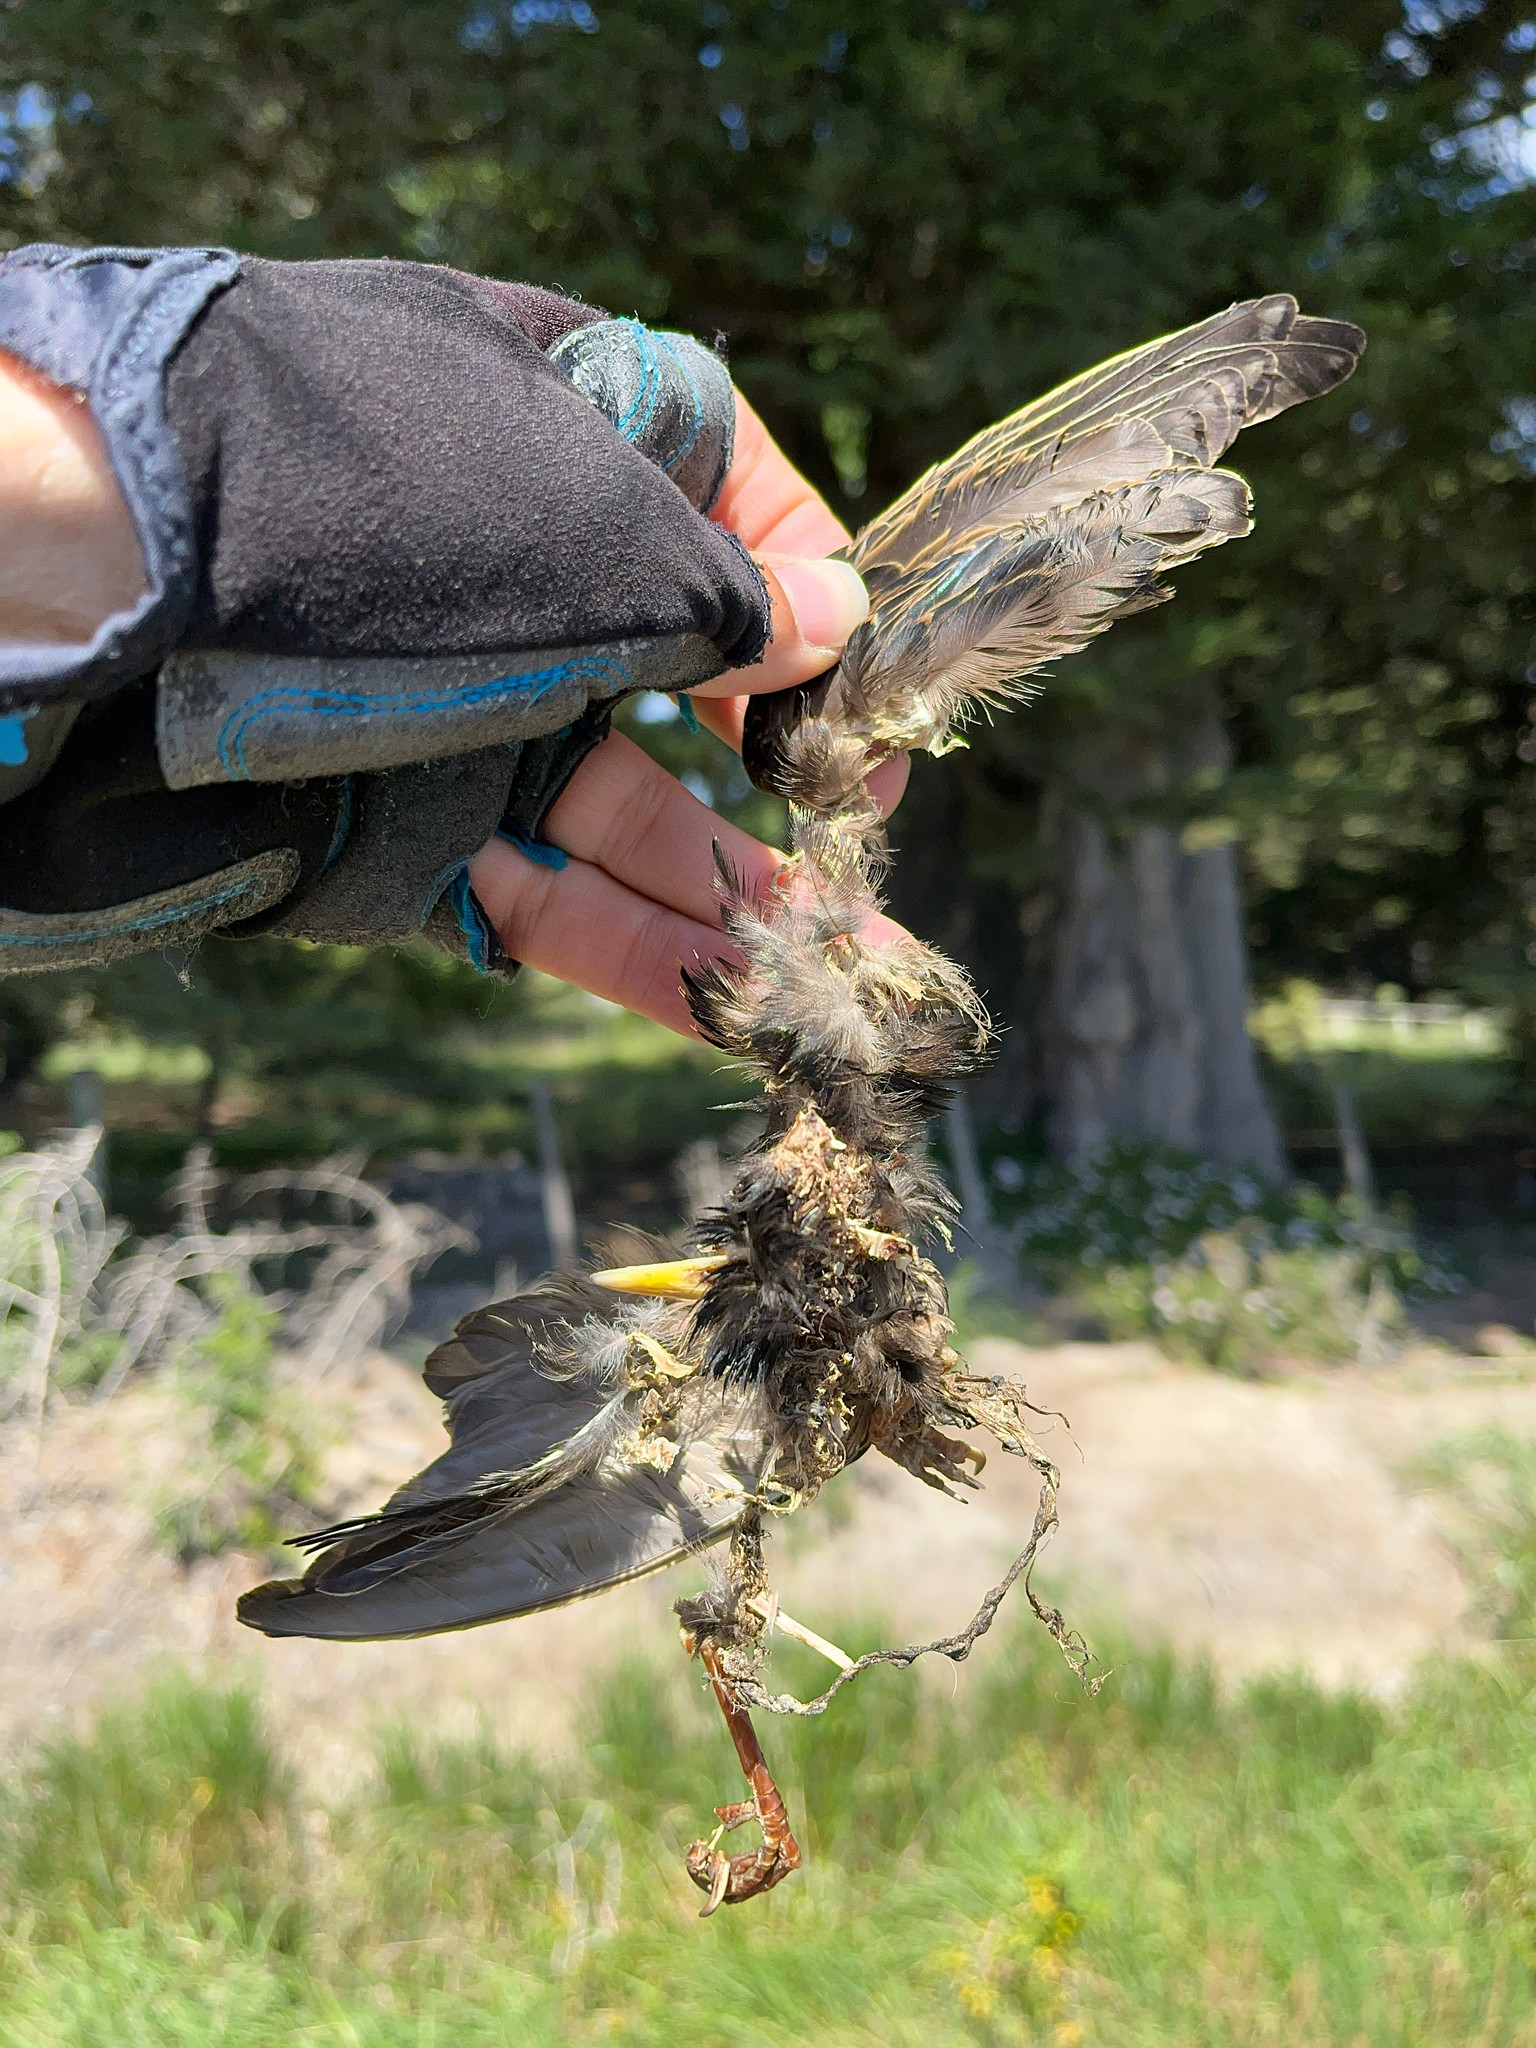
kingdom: Animalia
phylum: Chordata
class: Aves
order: Passeriformes
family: Sturnidae
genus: Sturnus
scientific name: Sturnus vulgaris
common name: Common starling
